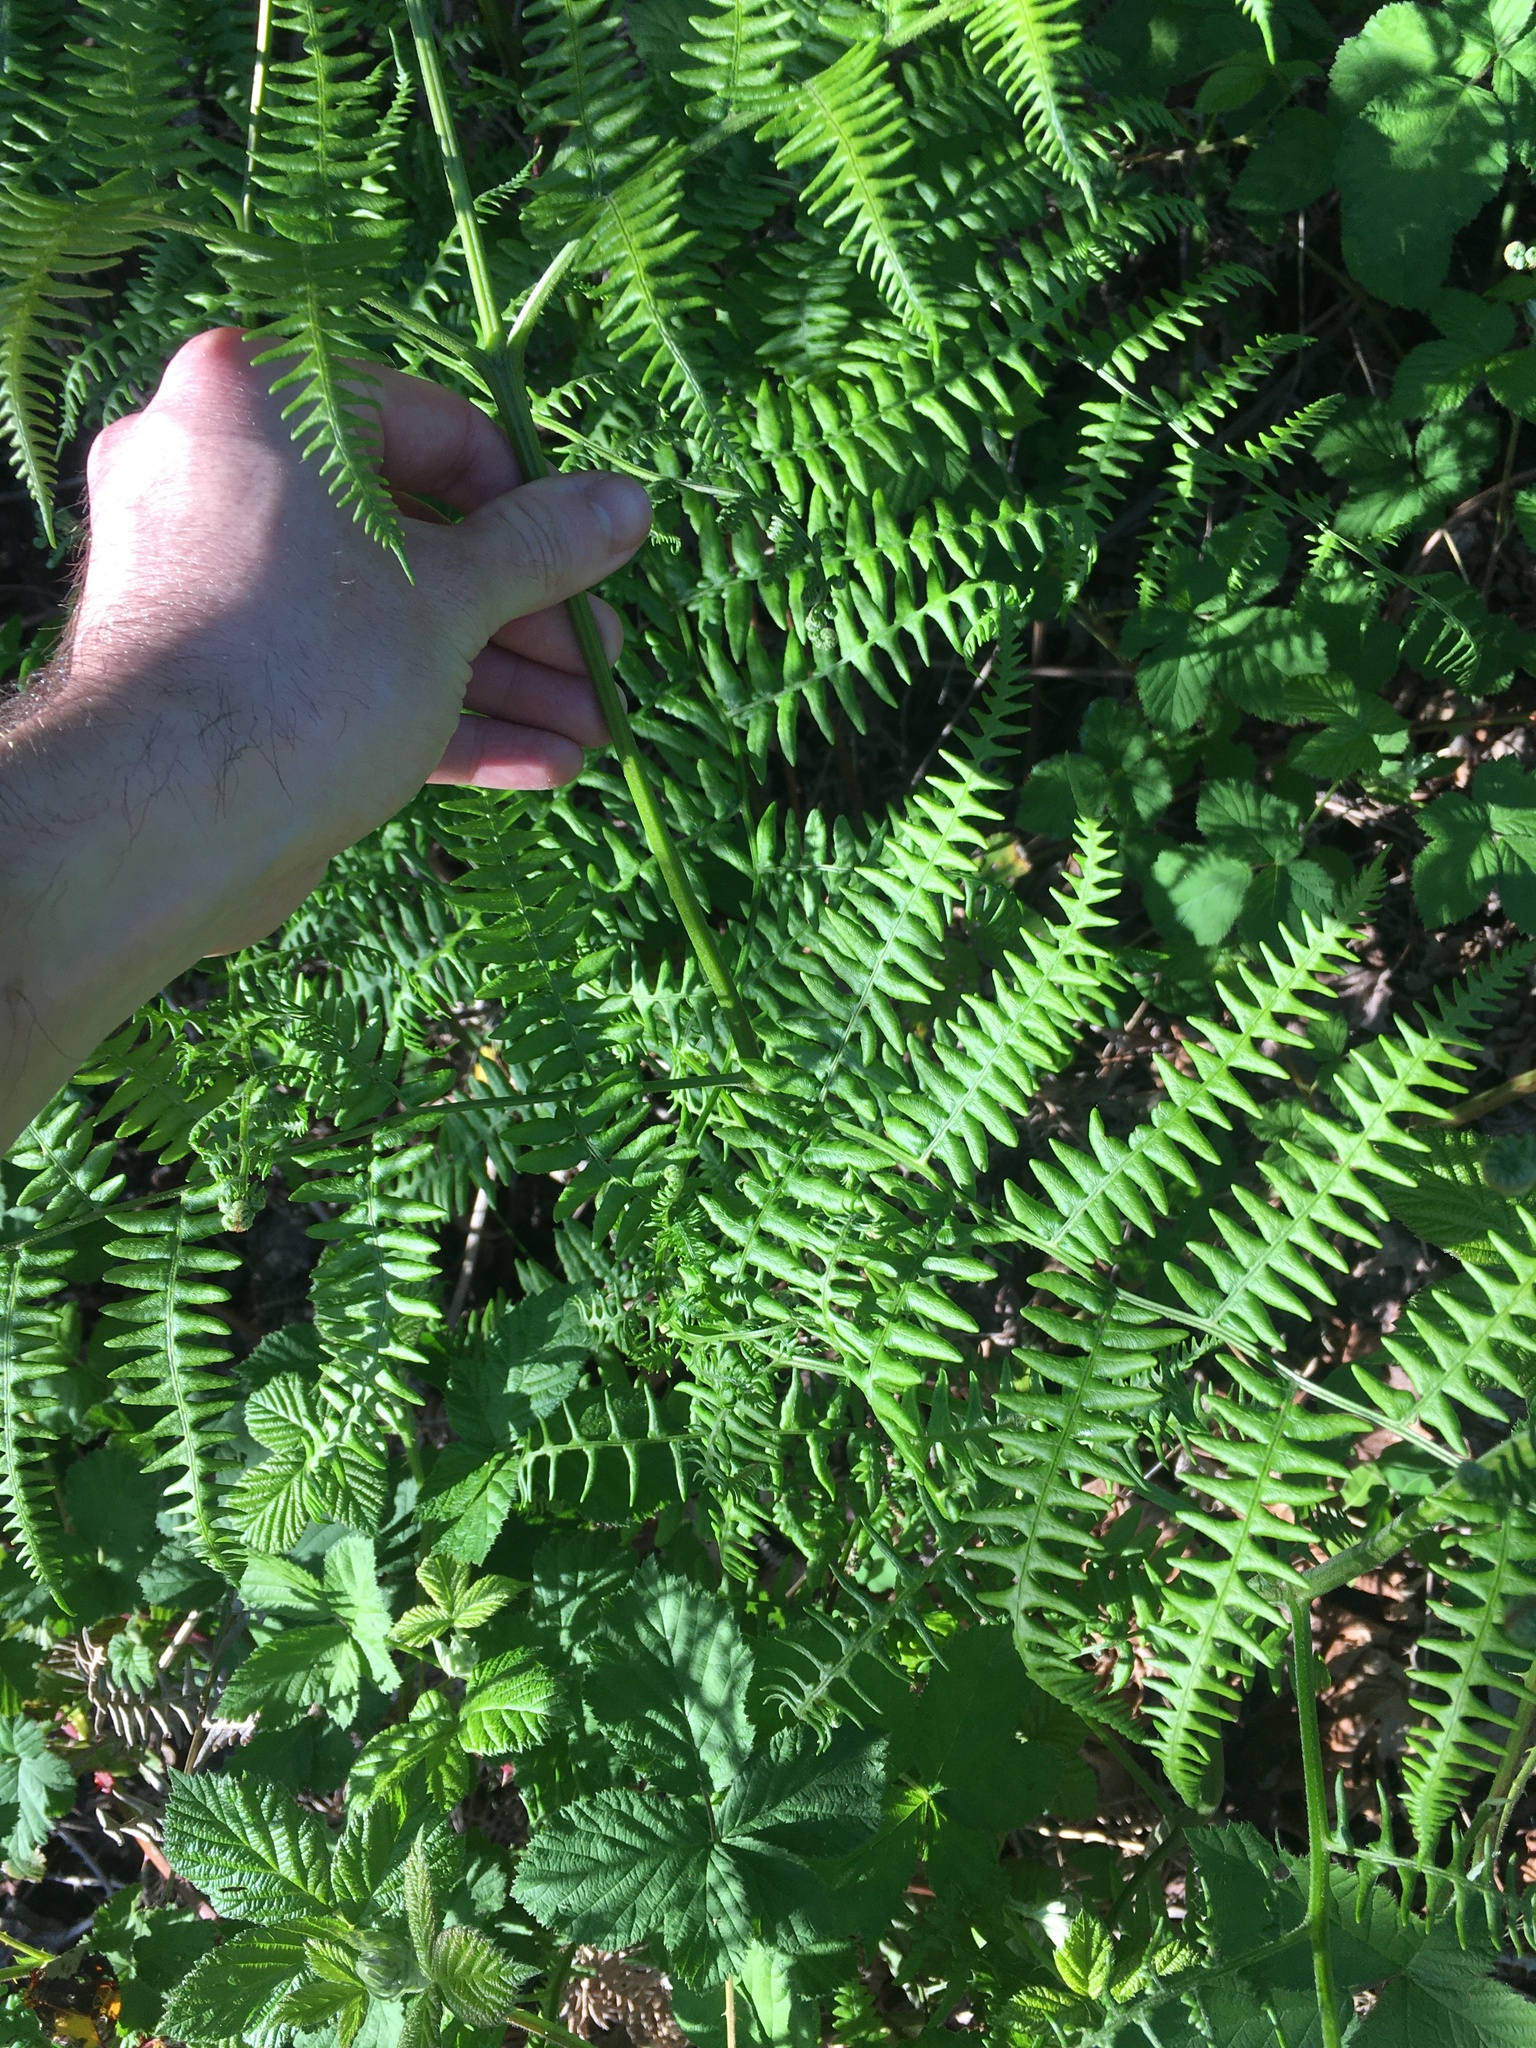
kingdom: Plantae
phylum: Tracheophyta
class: Polypodiopsida
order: Polypodiales
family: Dennstaedtiaceae
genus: Pteridium
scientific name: Pteridium aquilinum
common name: Bracken
